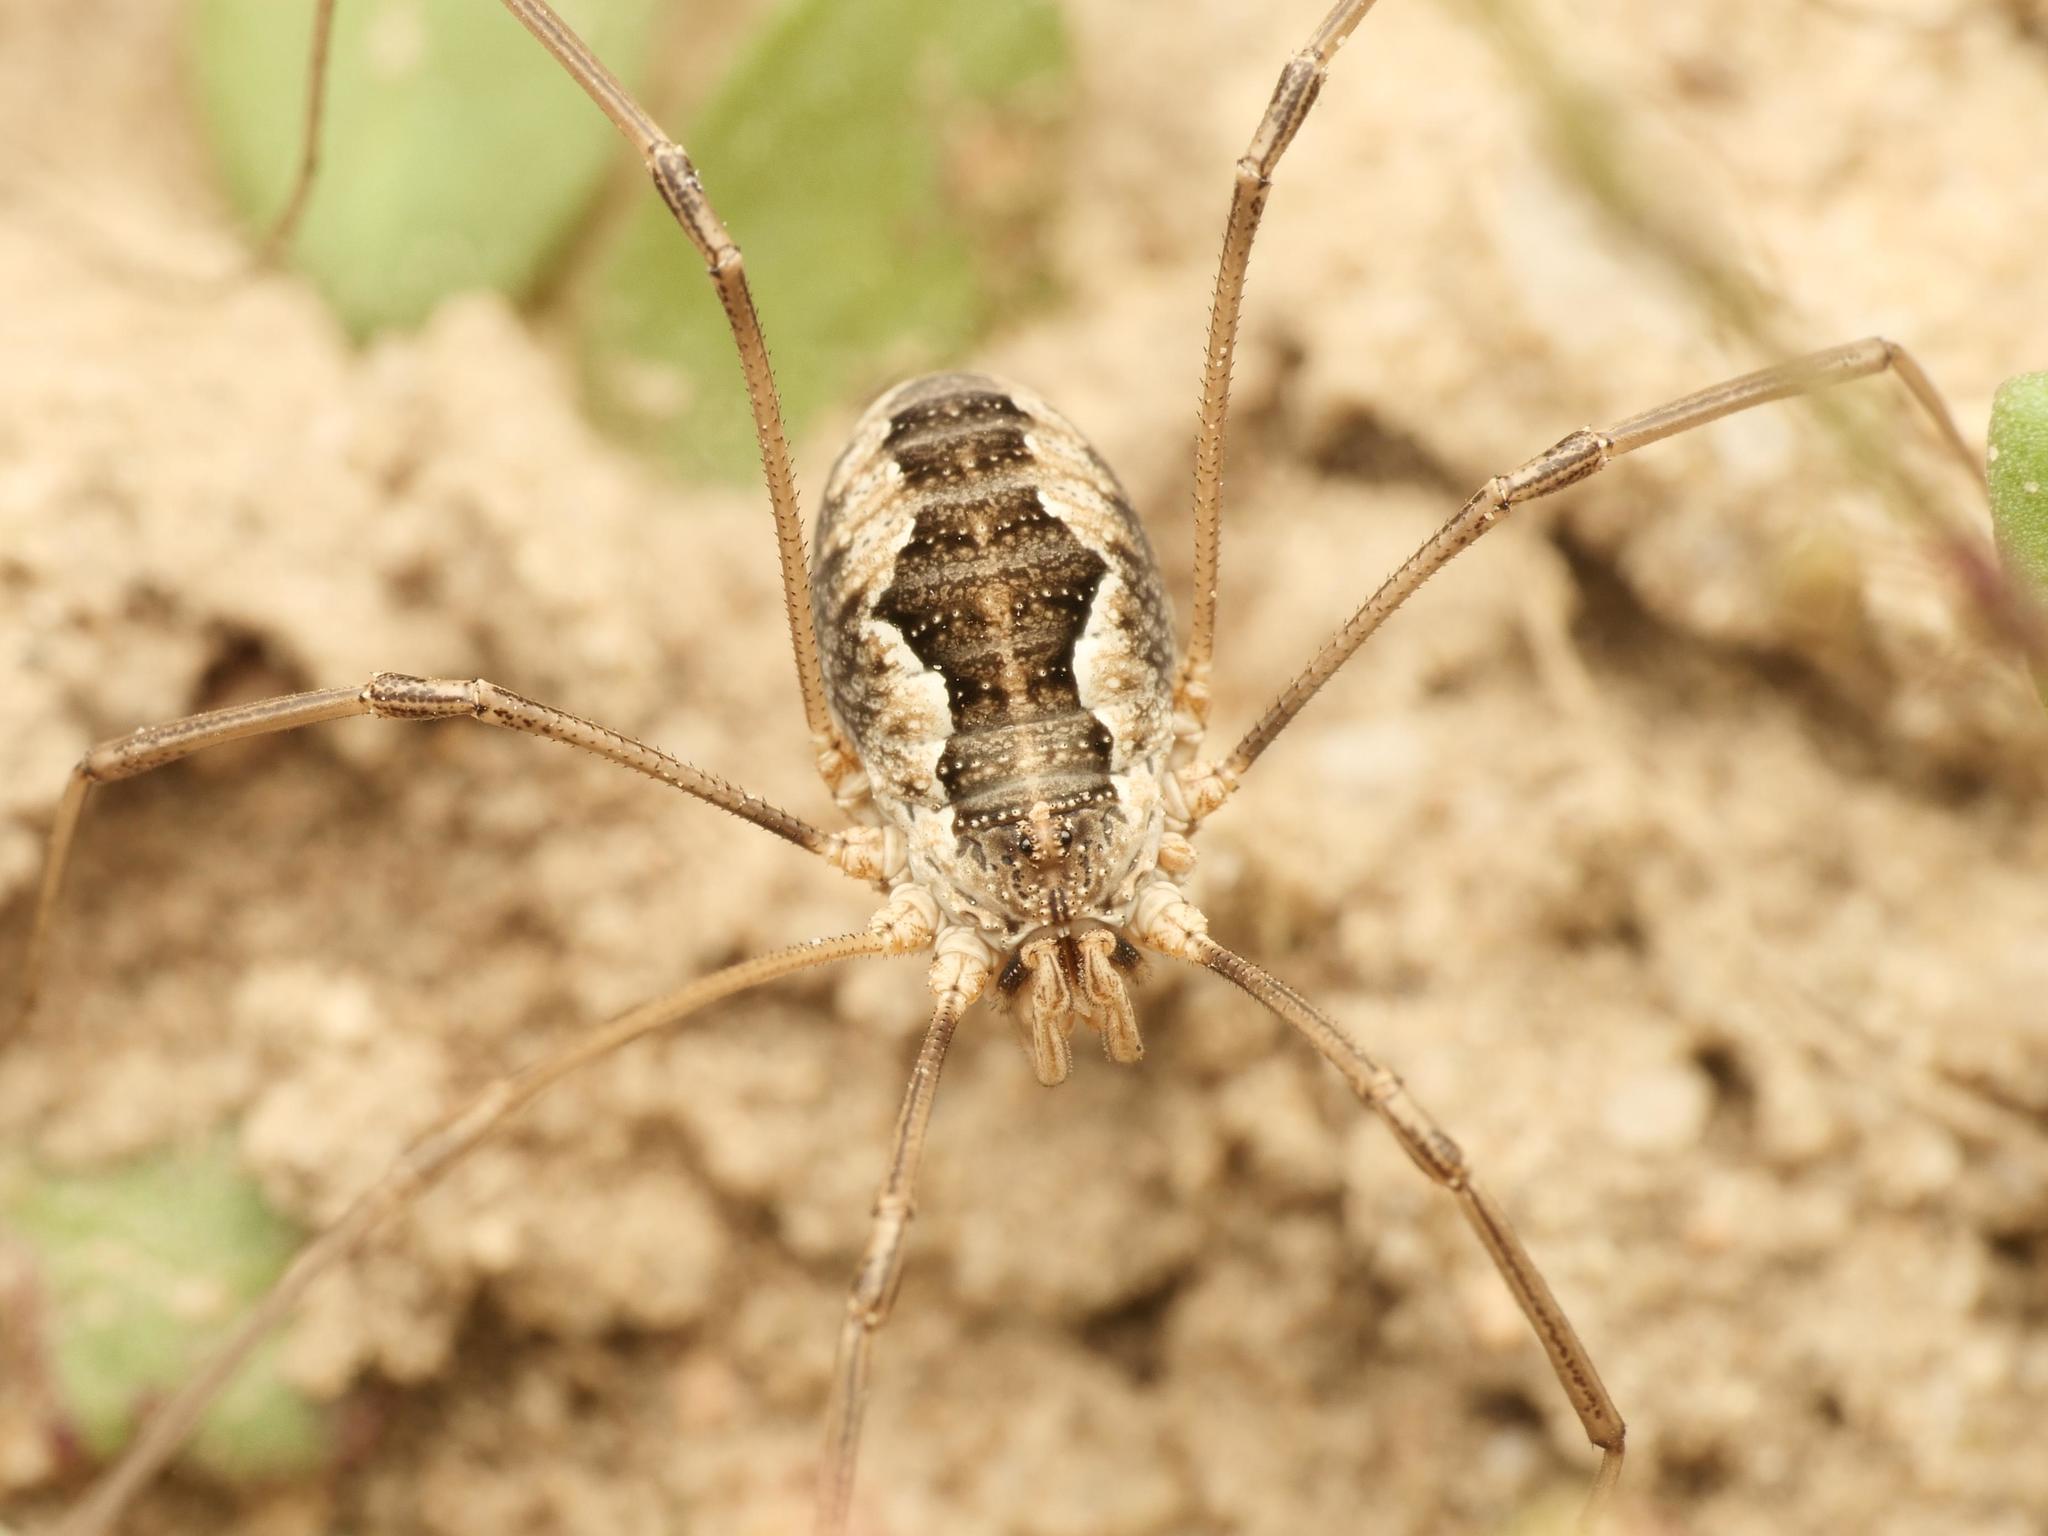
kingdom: Animalia
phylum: Arthropoda
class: Arachnida
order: Opiliones
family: Phalangiidae
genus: Phalangium
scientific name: Phalangium opilio
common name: Daddy longleg
